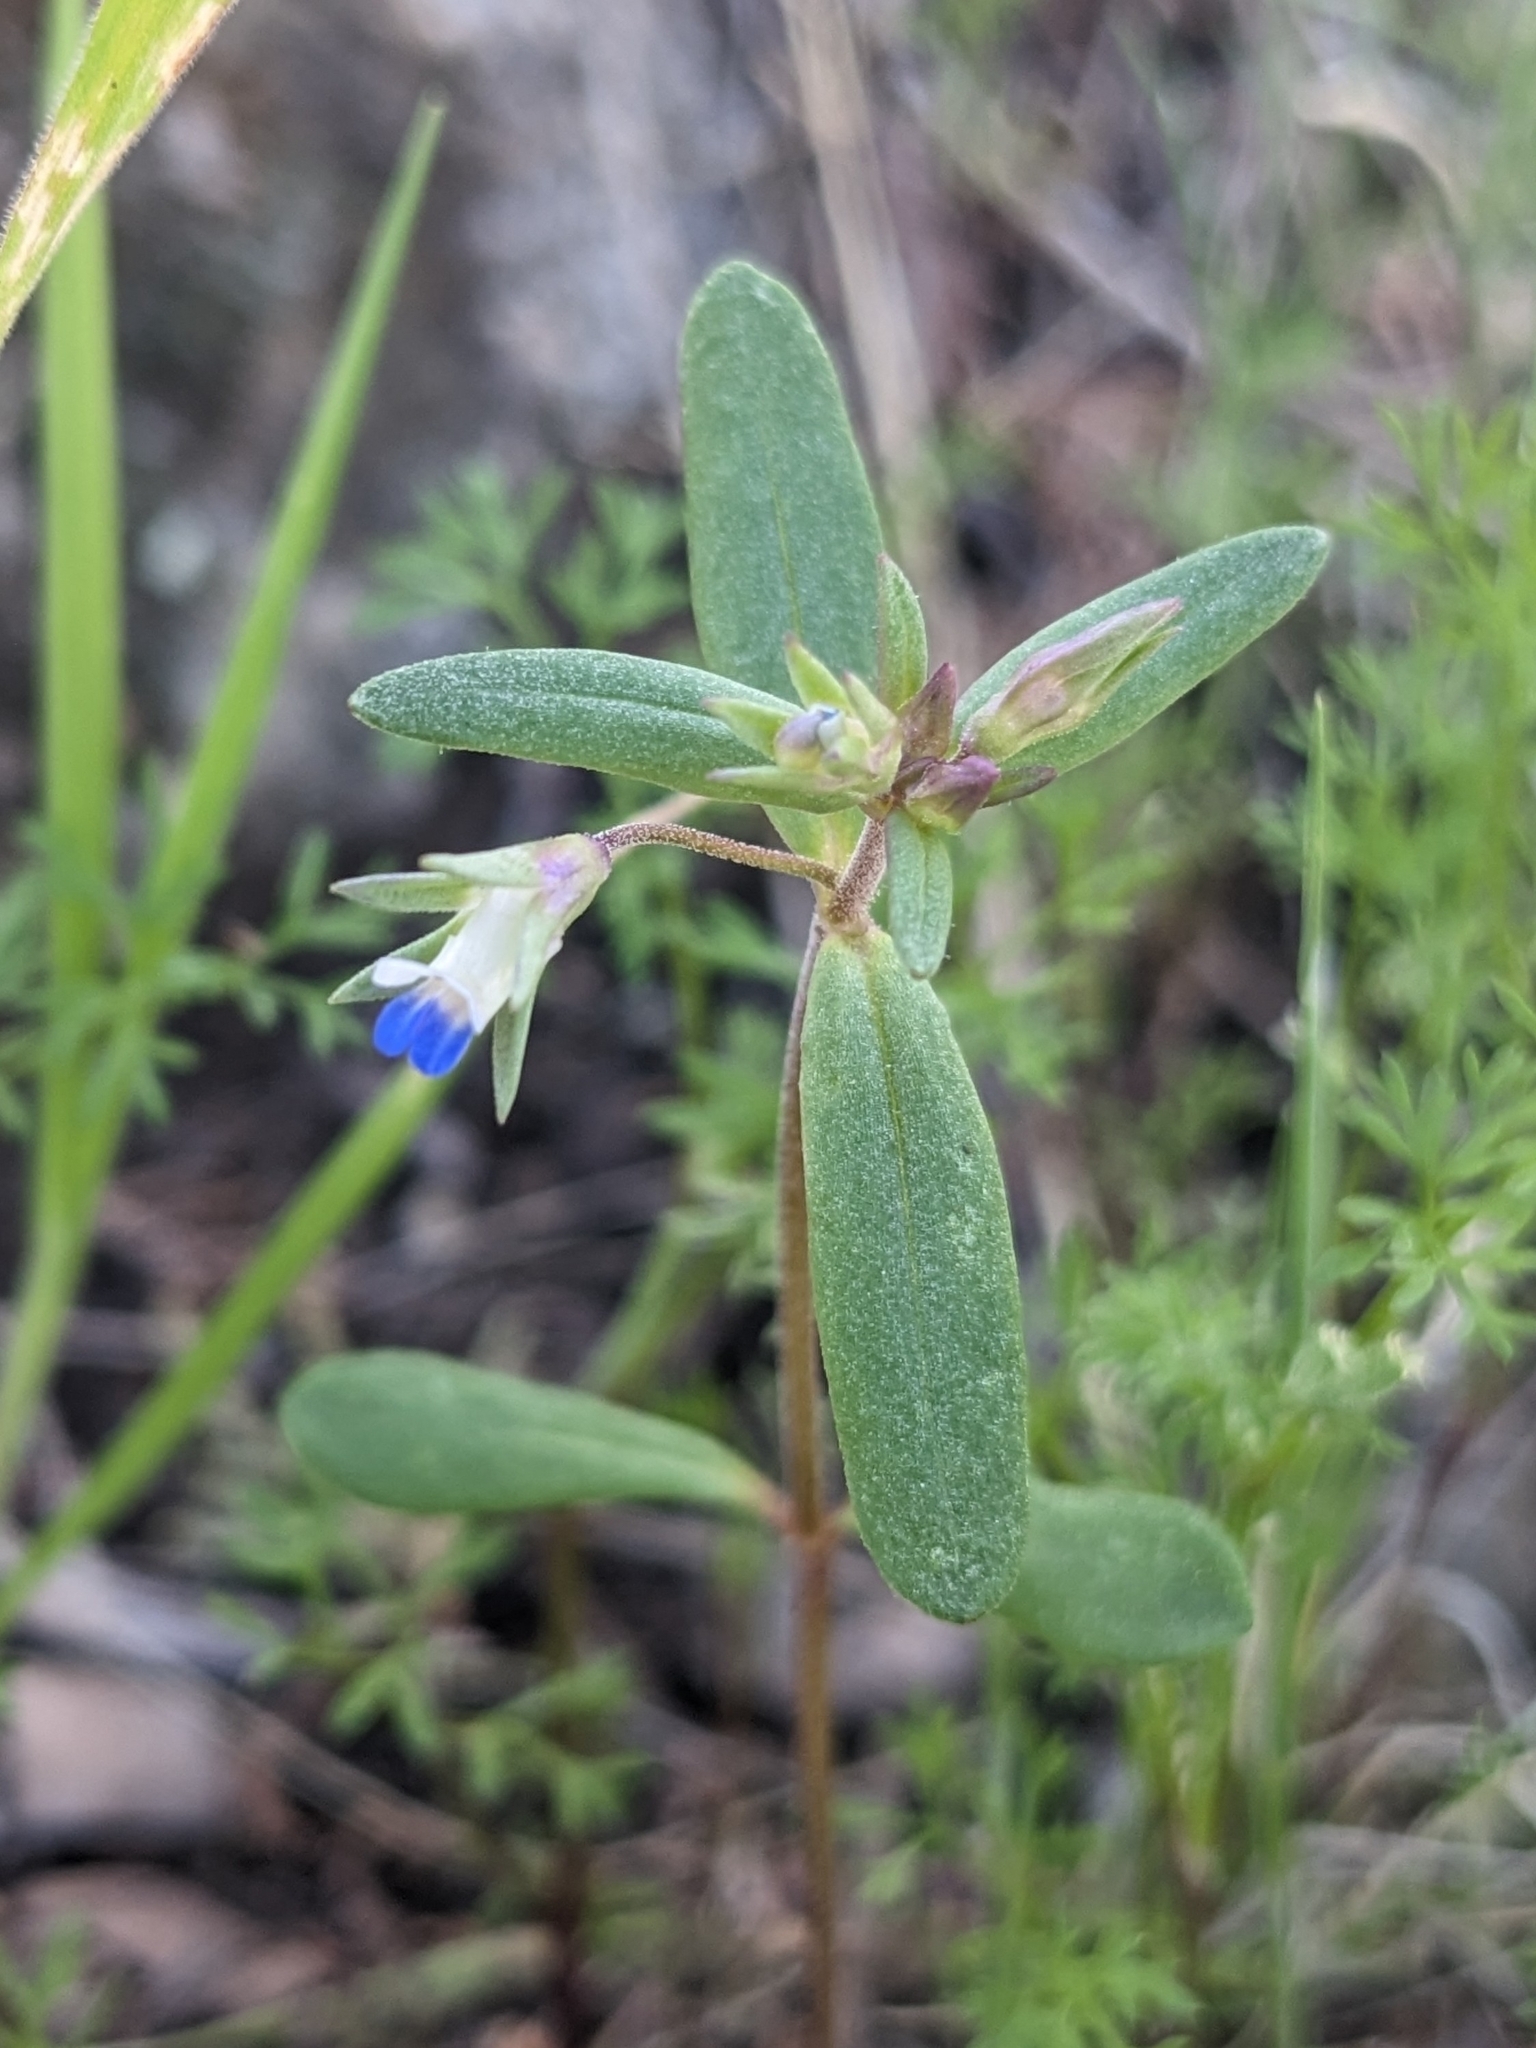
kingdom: Plantae
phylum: Tracheophyta
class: Magnoliopsida
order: Lamiales
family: Plantaginaceae
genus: Collinsia
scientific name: Collinsia parviflora
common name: Blue-lips
